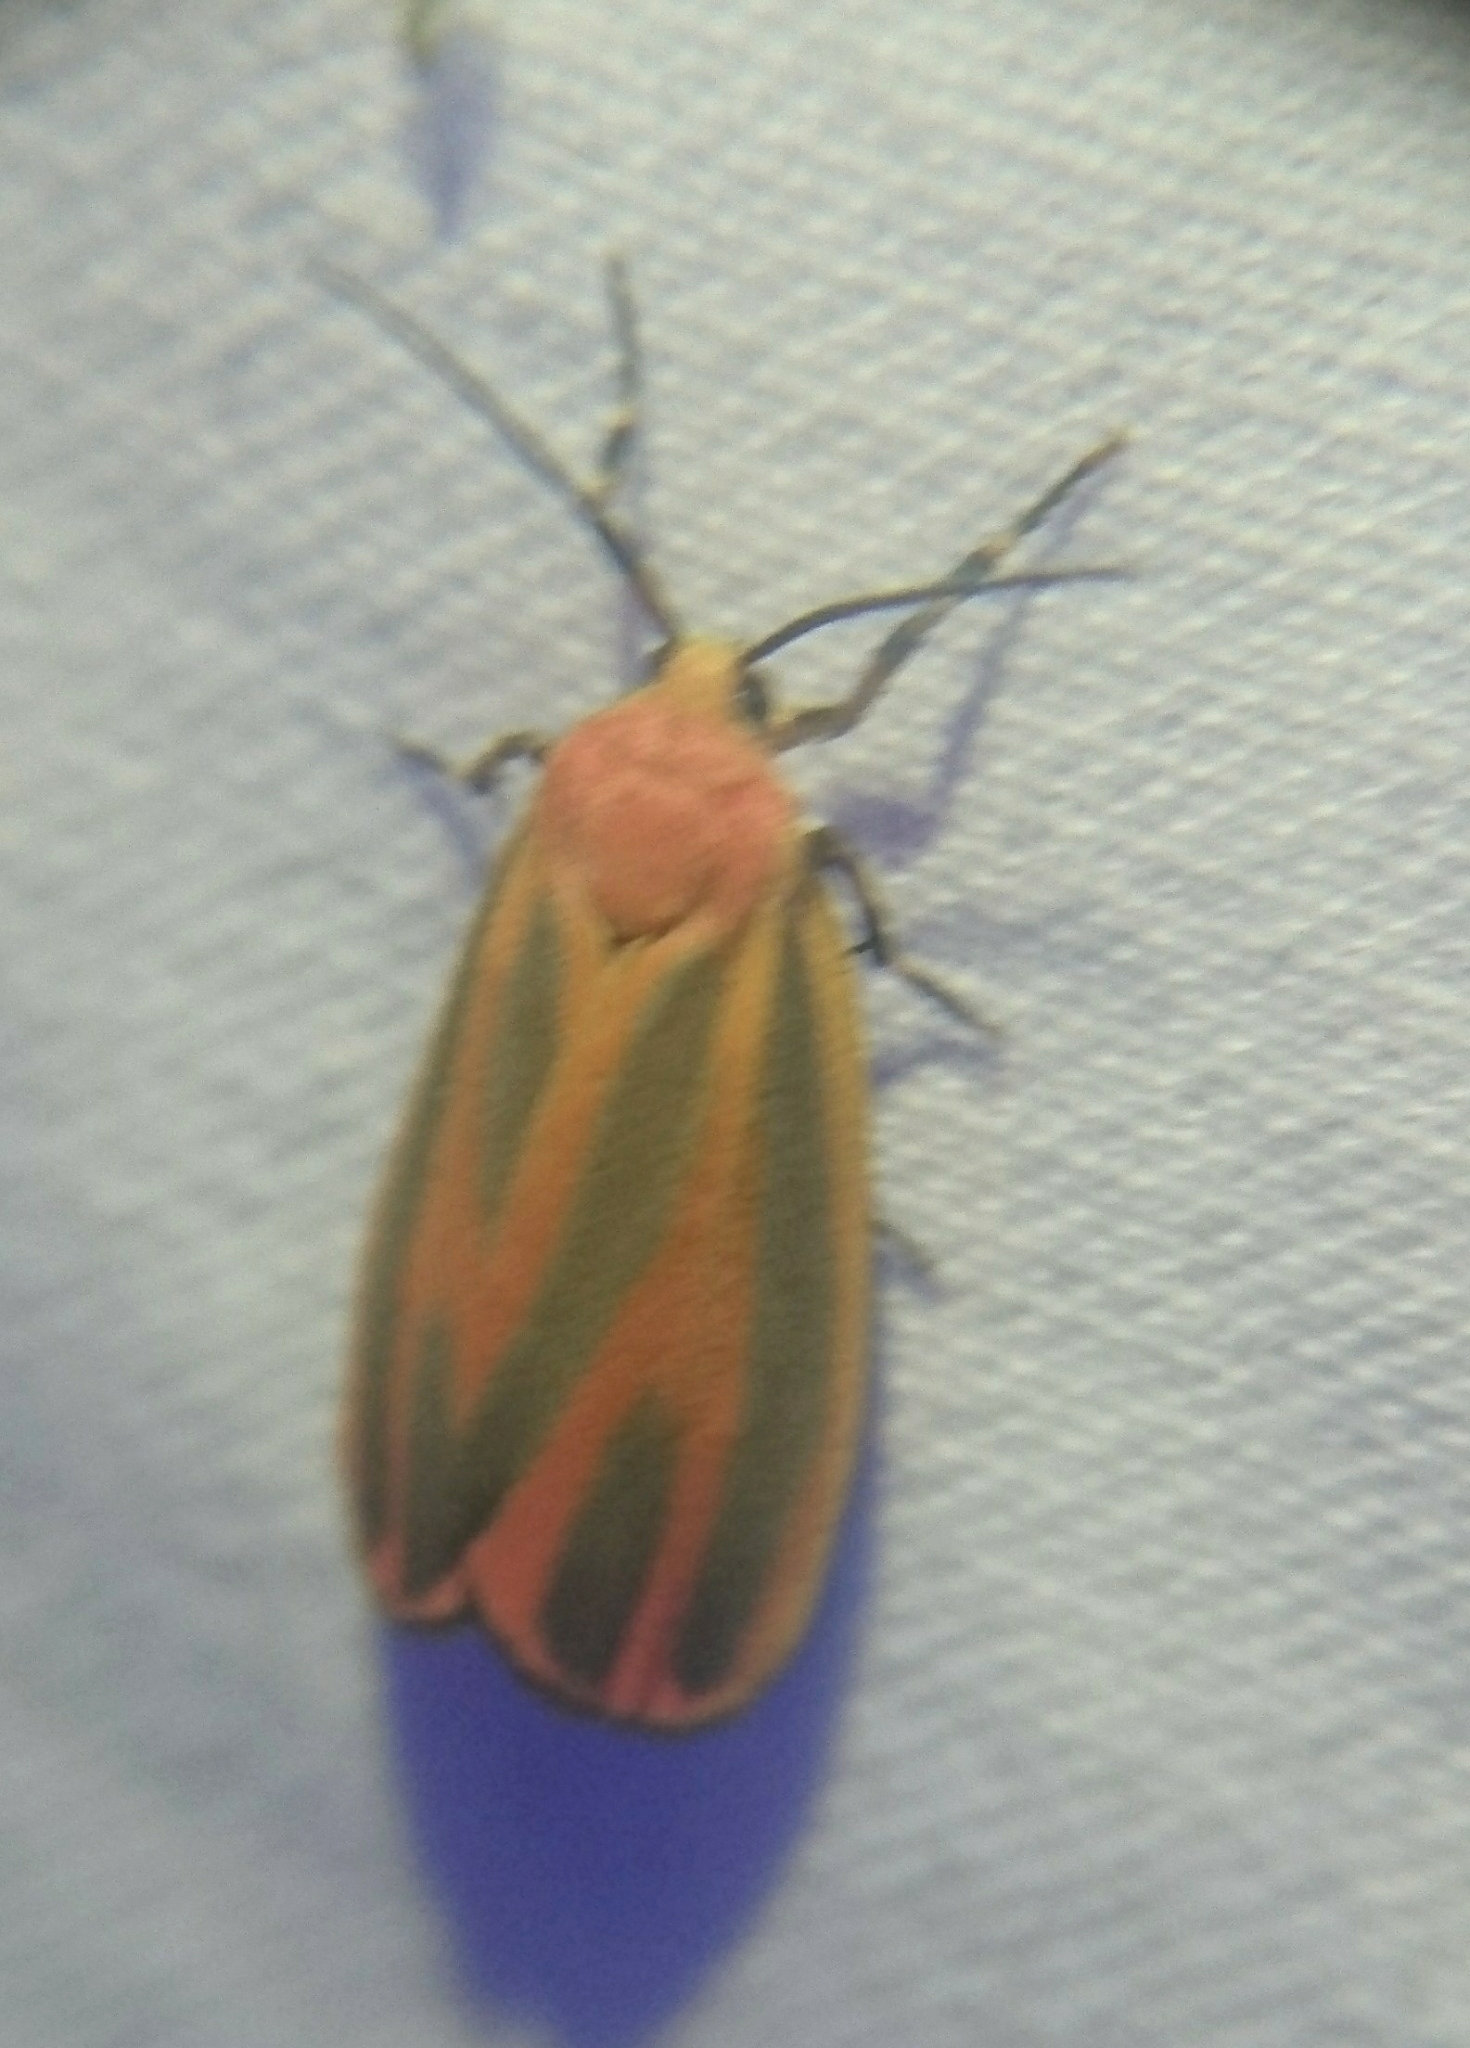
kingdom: Animalia
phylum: Arthropoda
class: Insecta
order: Lepidoptera
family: Erebidae
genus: Hypoprepia
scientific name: Hypoprepia fucosa
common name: Painted lichen moth
